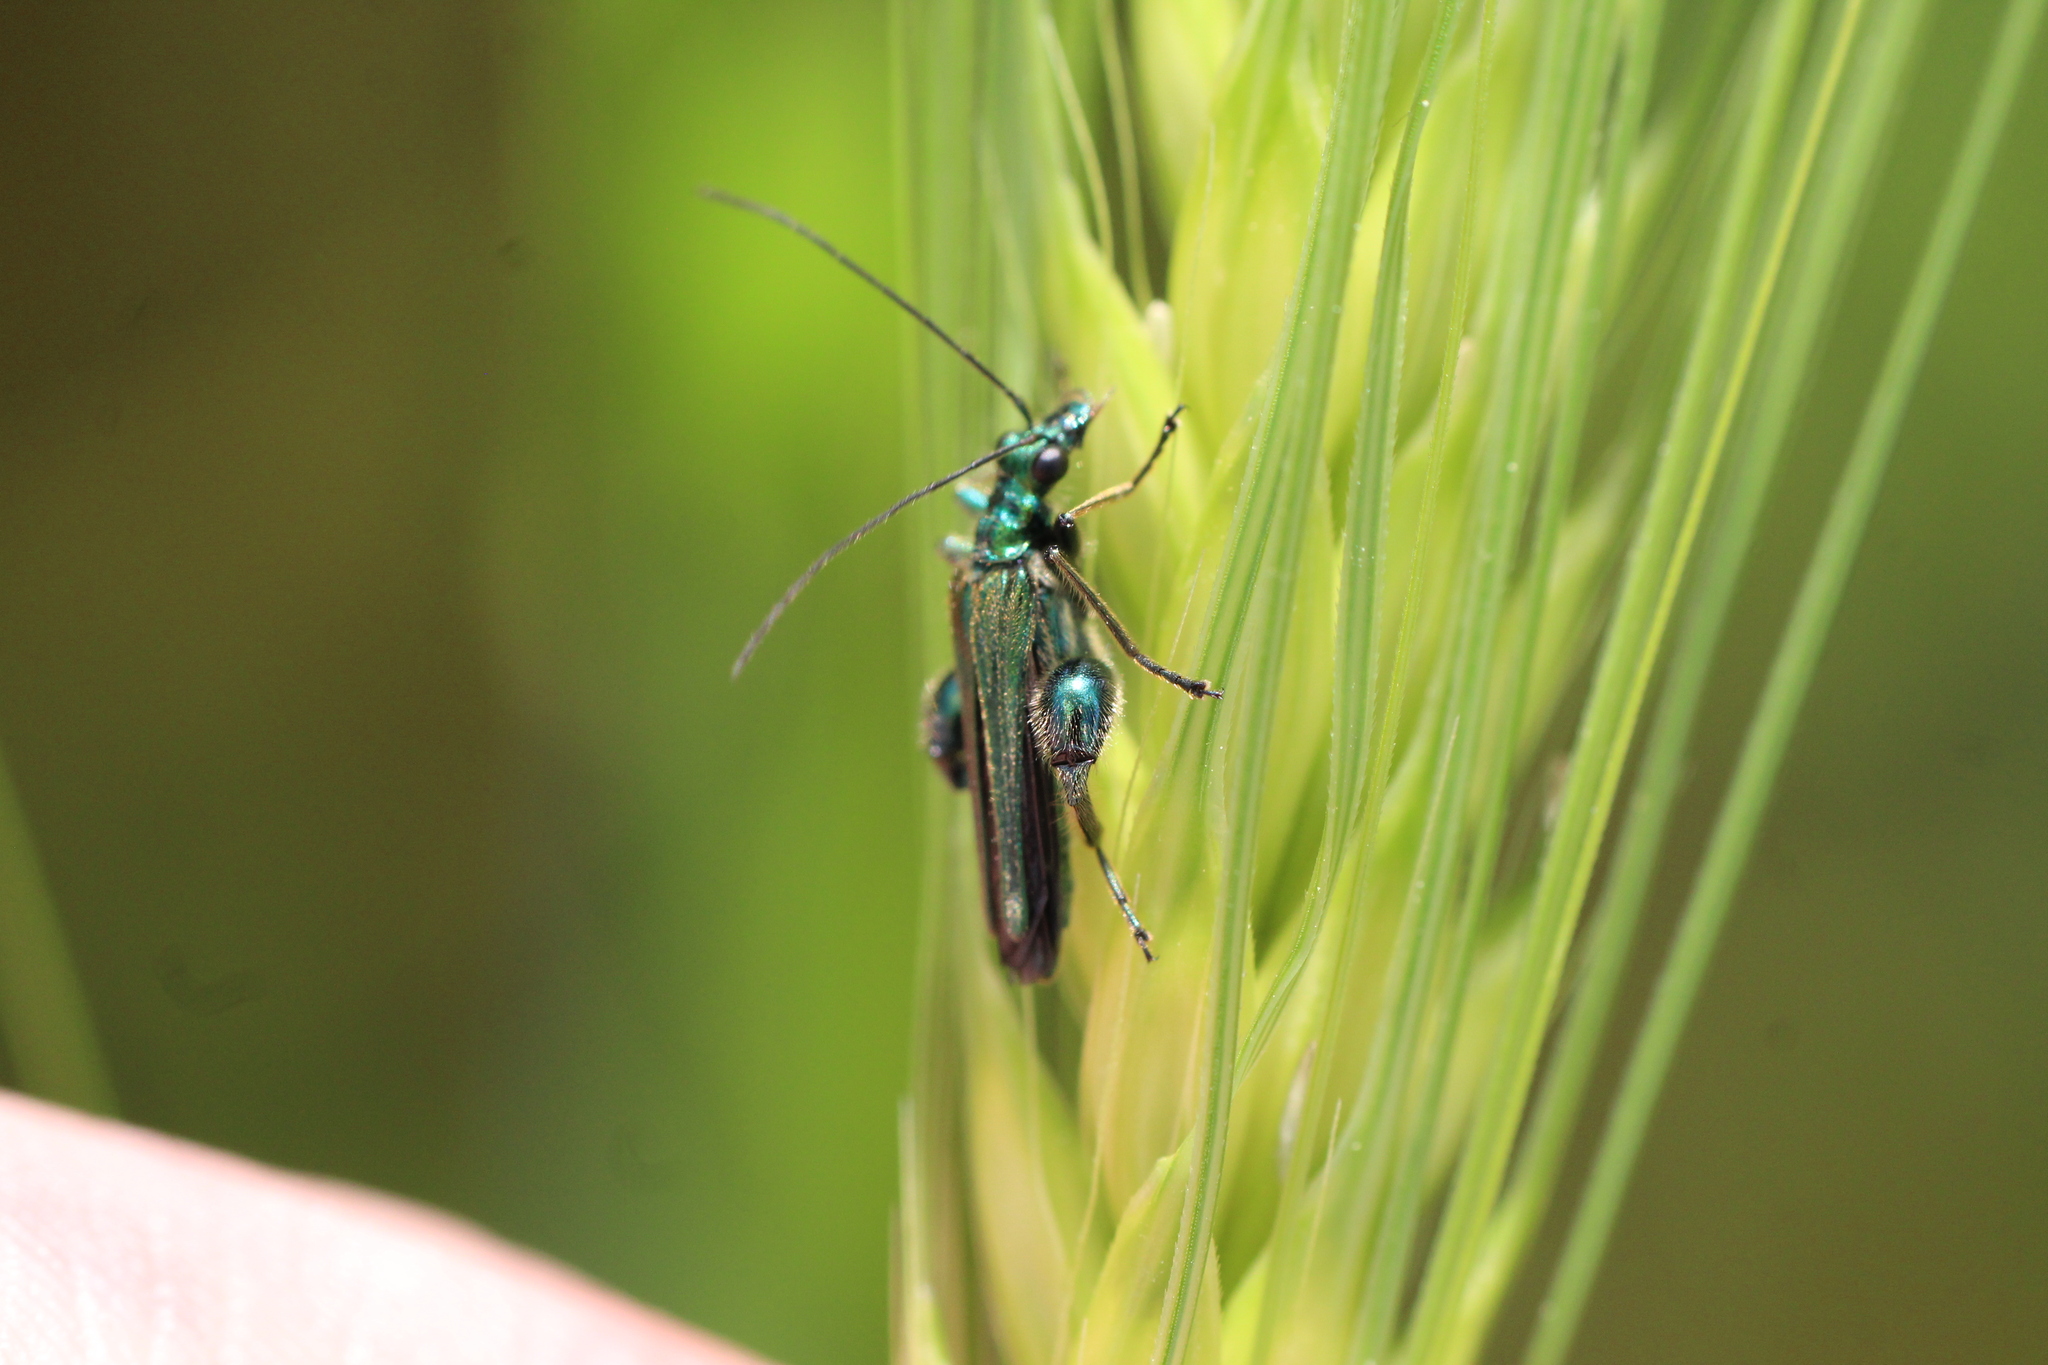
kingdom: Animalia
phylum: Arthropoda
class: Insecta
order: Coleoptera
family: Oedemeridae
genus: Oedemera
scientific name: Oedemera nobilis
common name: Swollen-thighed beetle
